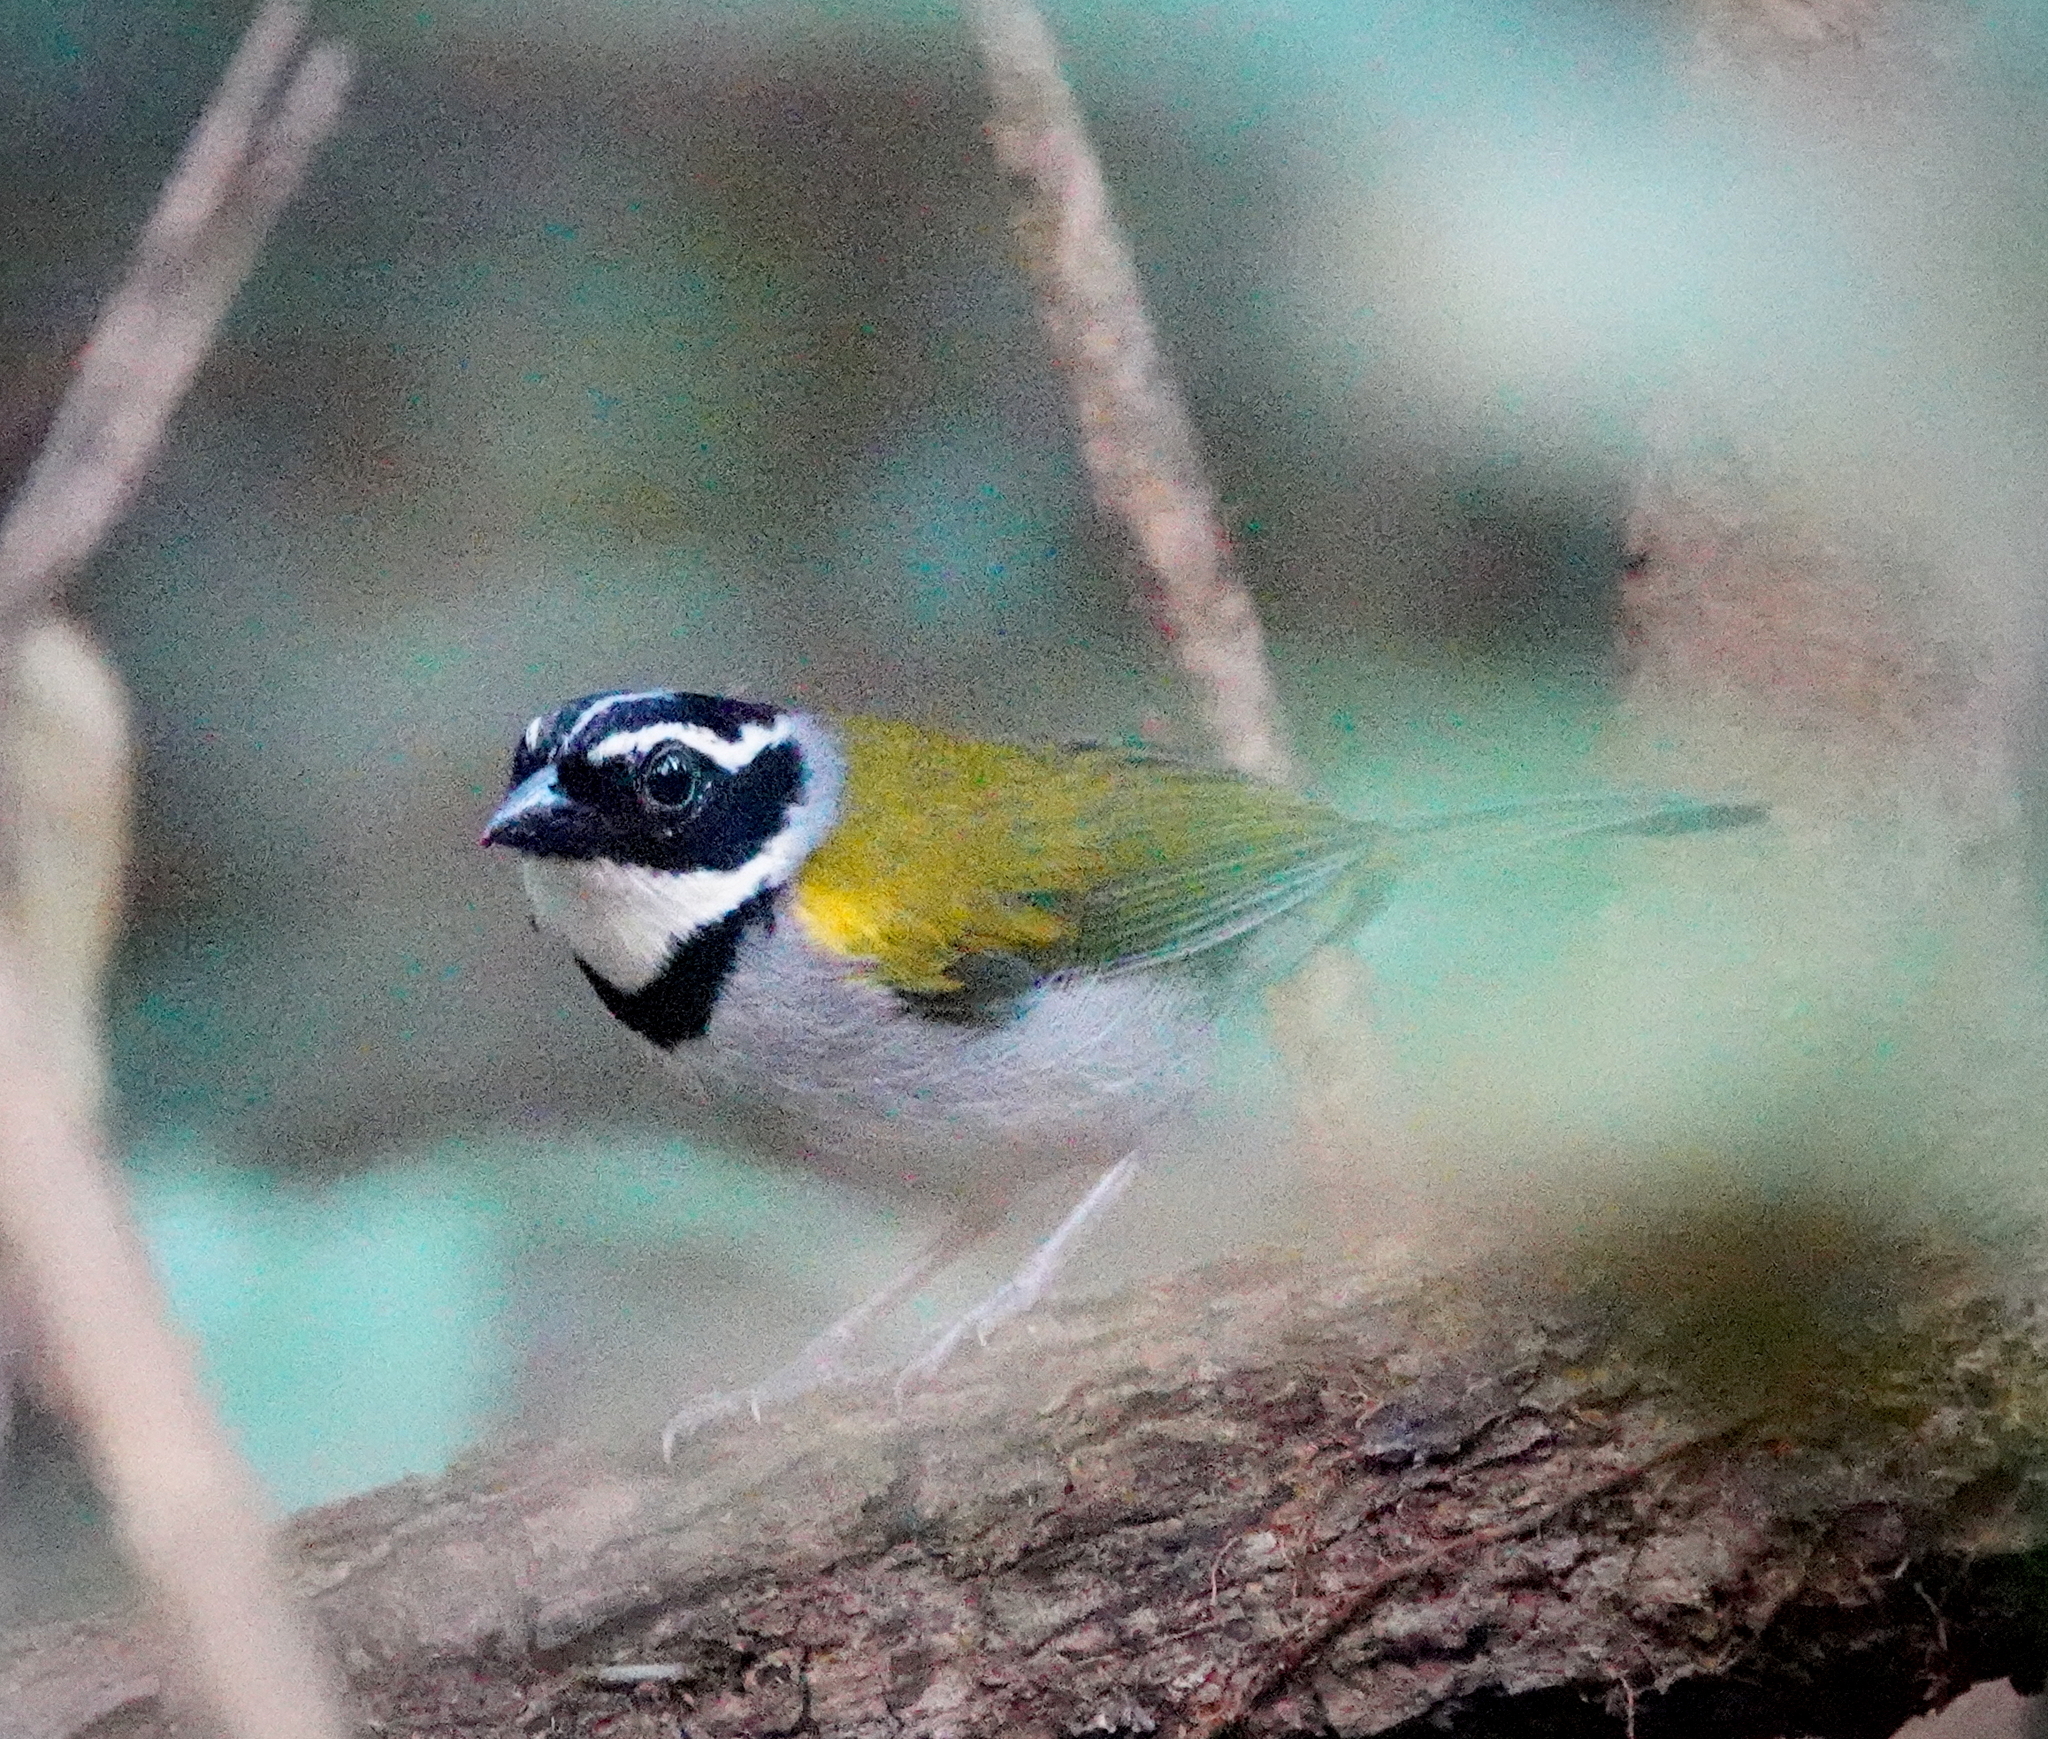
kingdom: Animalia
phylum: Chordata
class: Aves
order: Passeriformes
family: Passerellidae
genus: Arremon
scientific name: Arremon taciturnus
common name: Pectoral sparrow
